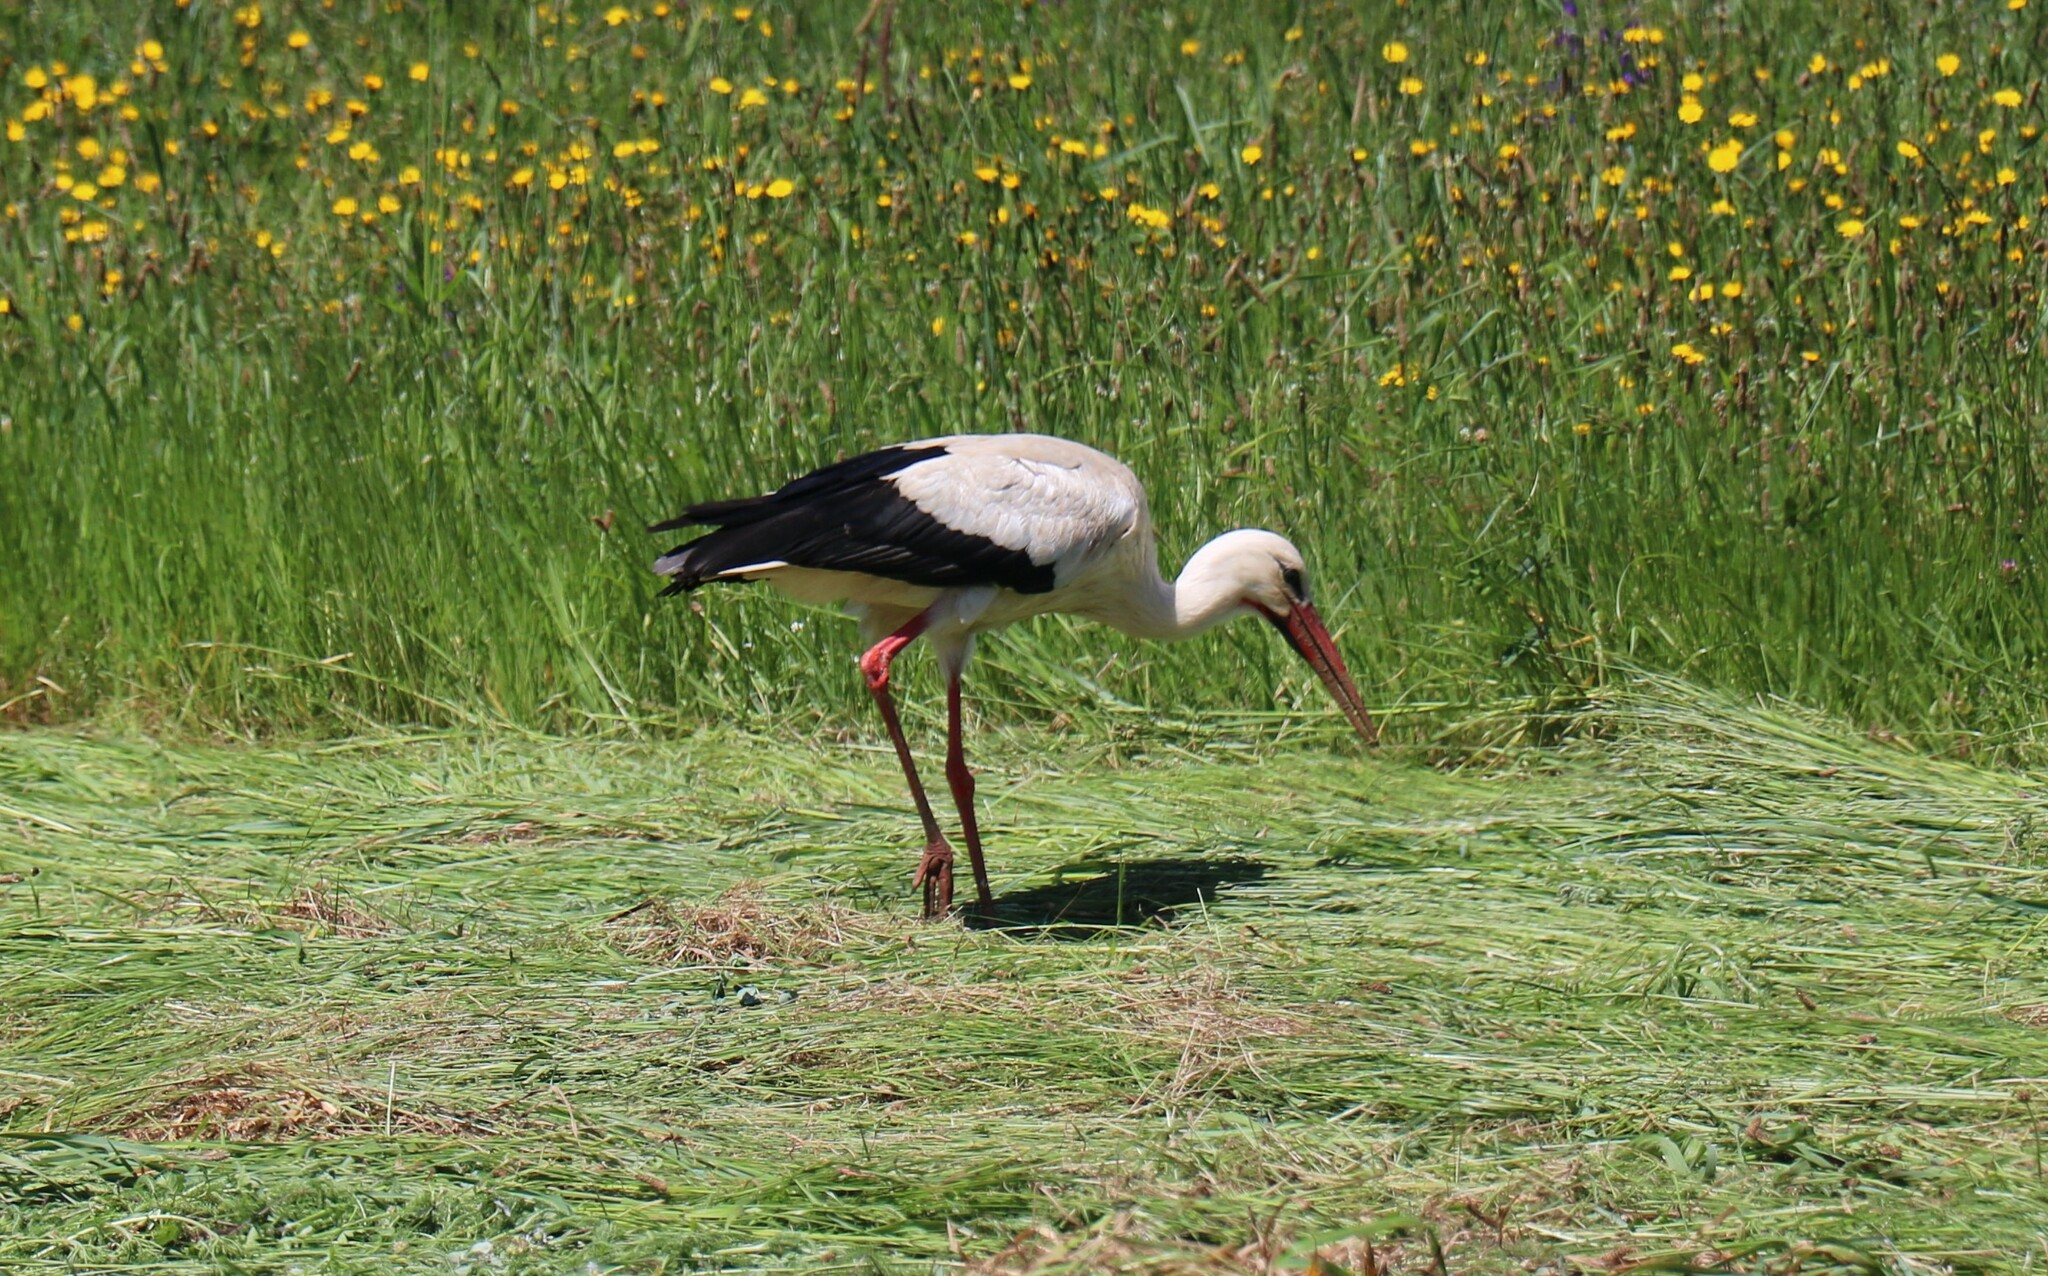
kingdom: Animalia
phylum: Chordata
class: Aves
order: Ciconiiformes
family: Ciconiidae
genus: Ciconia
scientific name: Ciconia ciconia
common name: White stork
